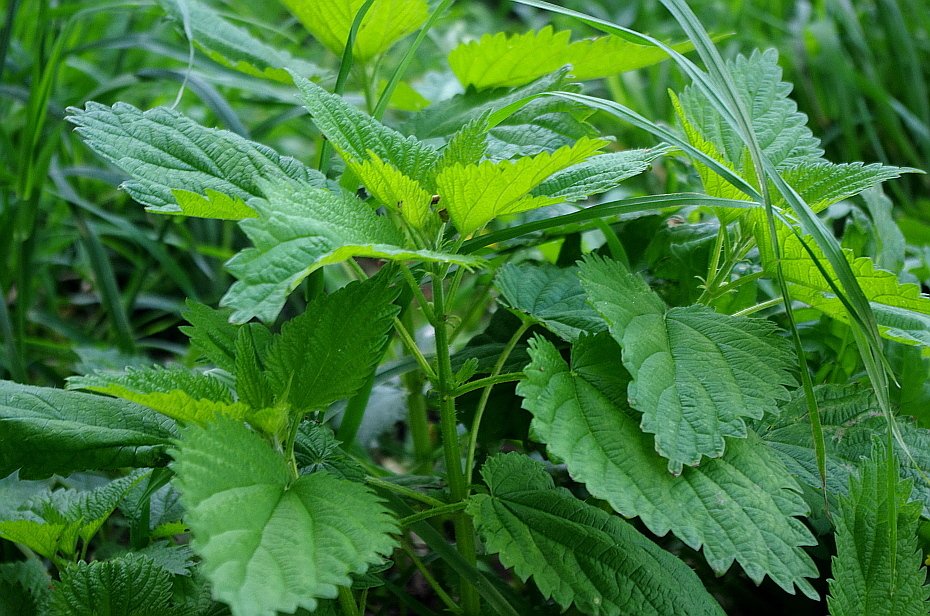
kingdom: Plantae
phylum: Tracheophyta
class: Magnoliopsida
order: Rosales
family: Urticaceae
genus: Urtica
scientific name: Urtica dioica
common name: Common nettle
